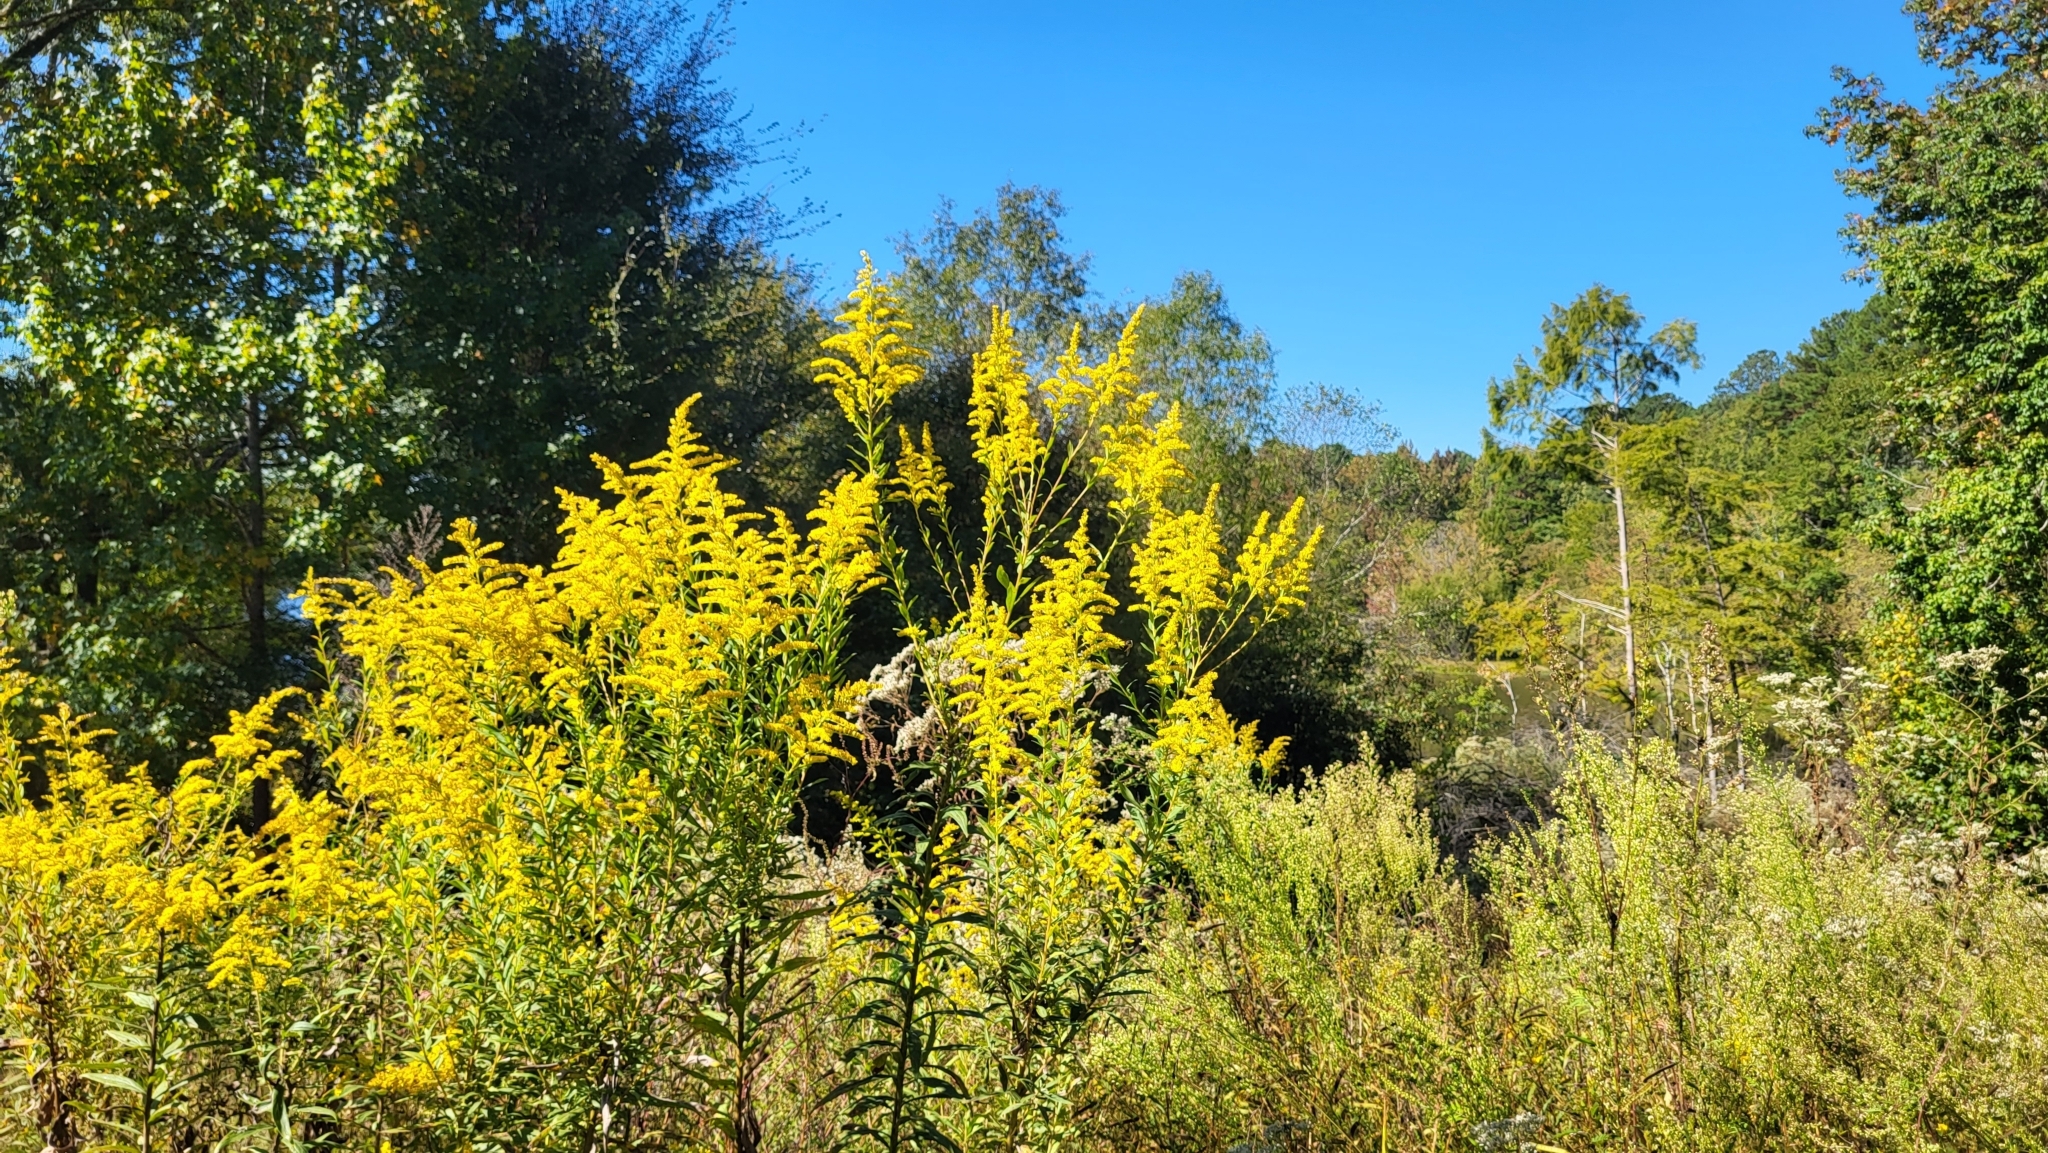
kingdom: Plantae
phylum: Tracheophyta
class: Magnoliopsida
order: Asterales
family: Asteraceae
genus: Solidago
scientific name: Solidago altissima
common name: Late goldenrod
